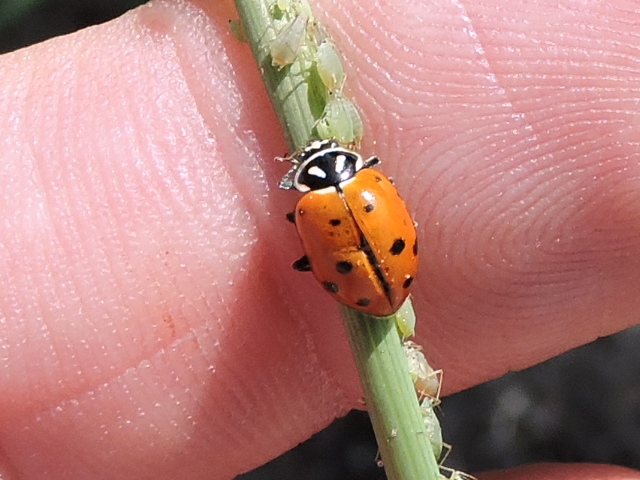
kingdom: Animalia
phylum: Arthropoda
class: Insecta
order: Coleoptera
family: Coccinellidae
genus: Hippodamia
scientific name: Hippodamia convergens
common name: Convergent lady beetle
